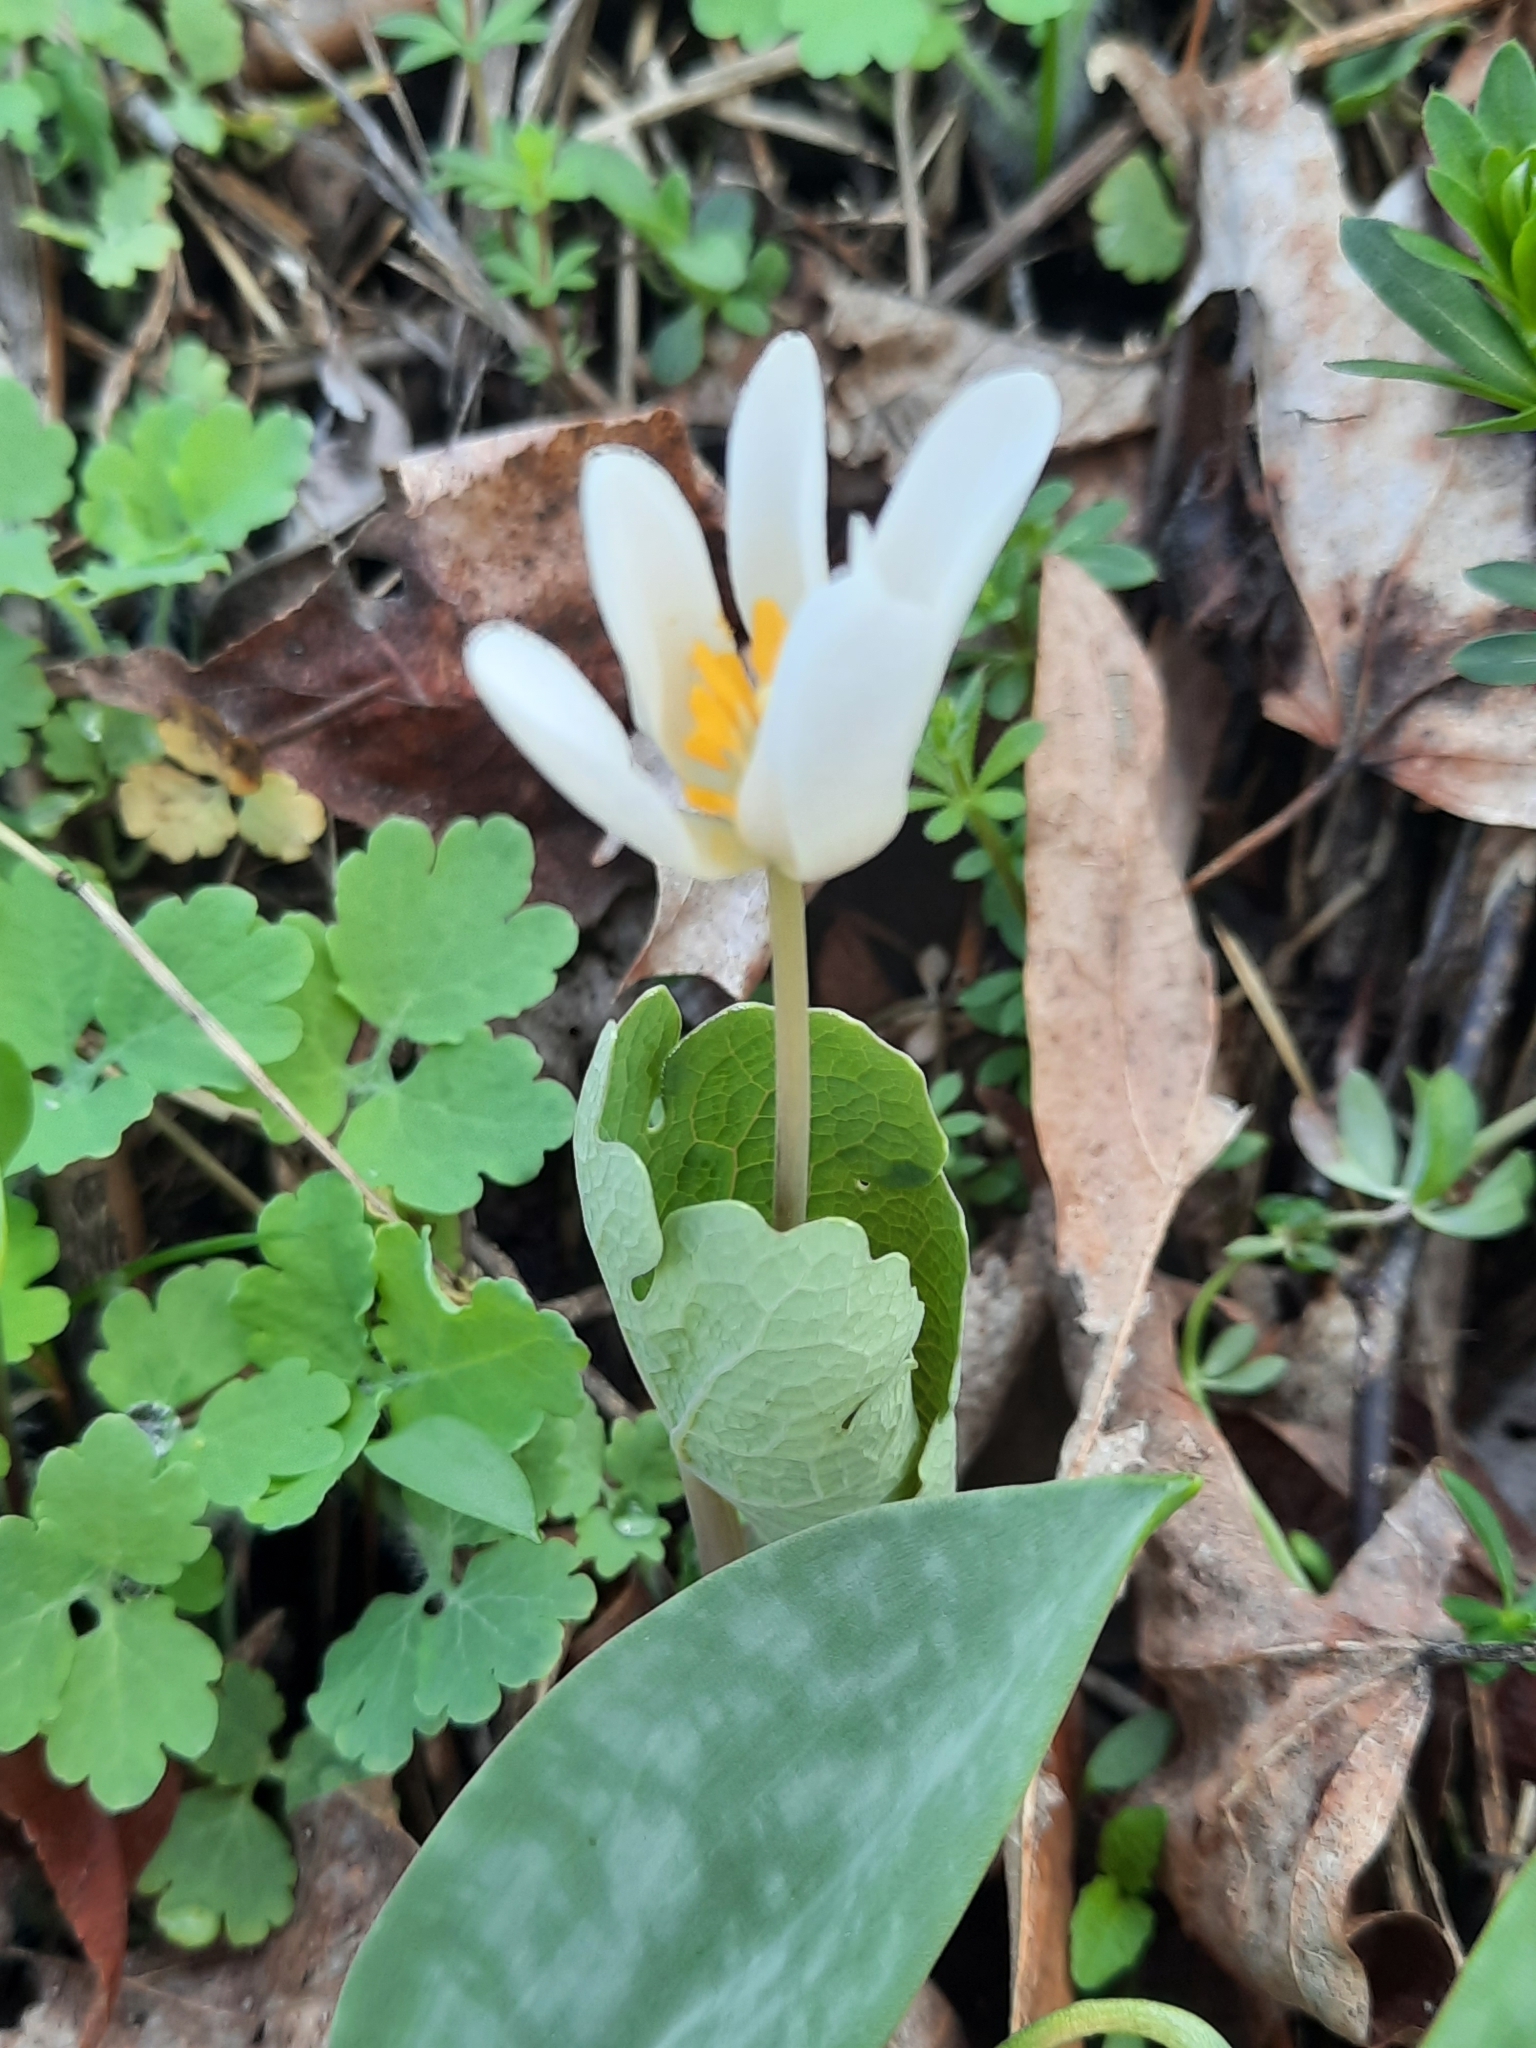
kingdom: Plantae
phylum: Tracheophyta
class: Magnoliopsida
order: Ranunculales
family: Papaveraceae
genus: Sanguinaria
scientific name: Sanguinaria canadensis
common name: Bloodroot
